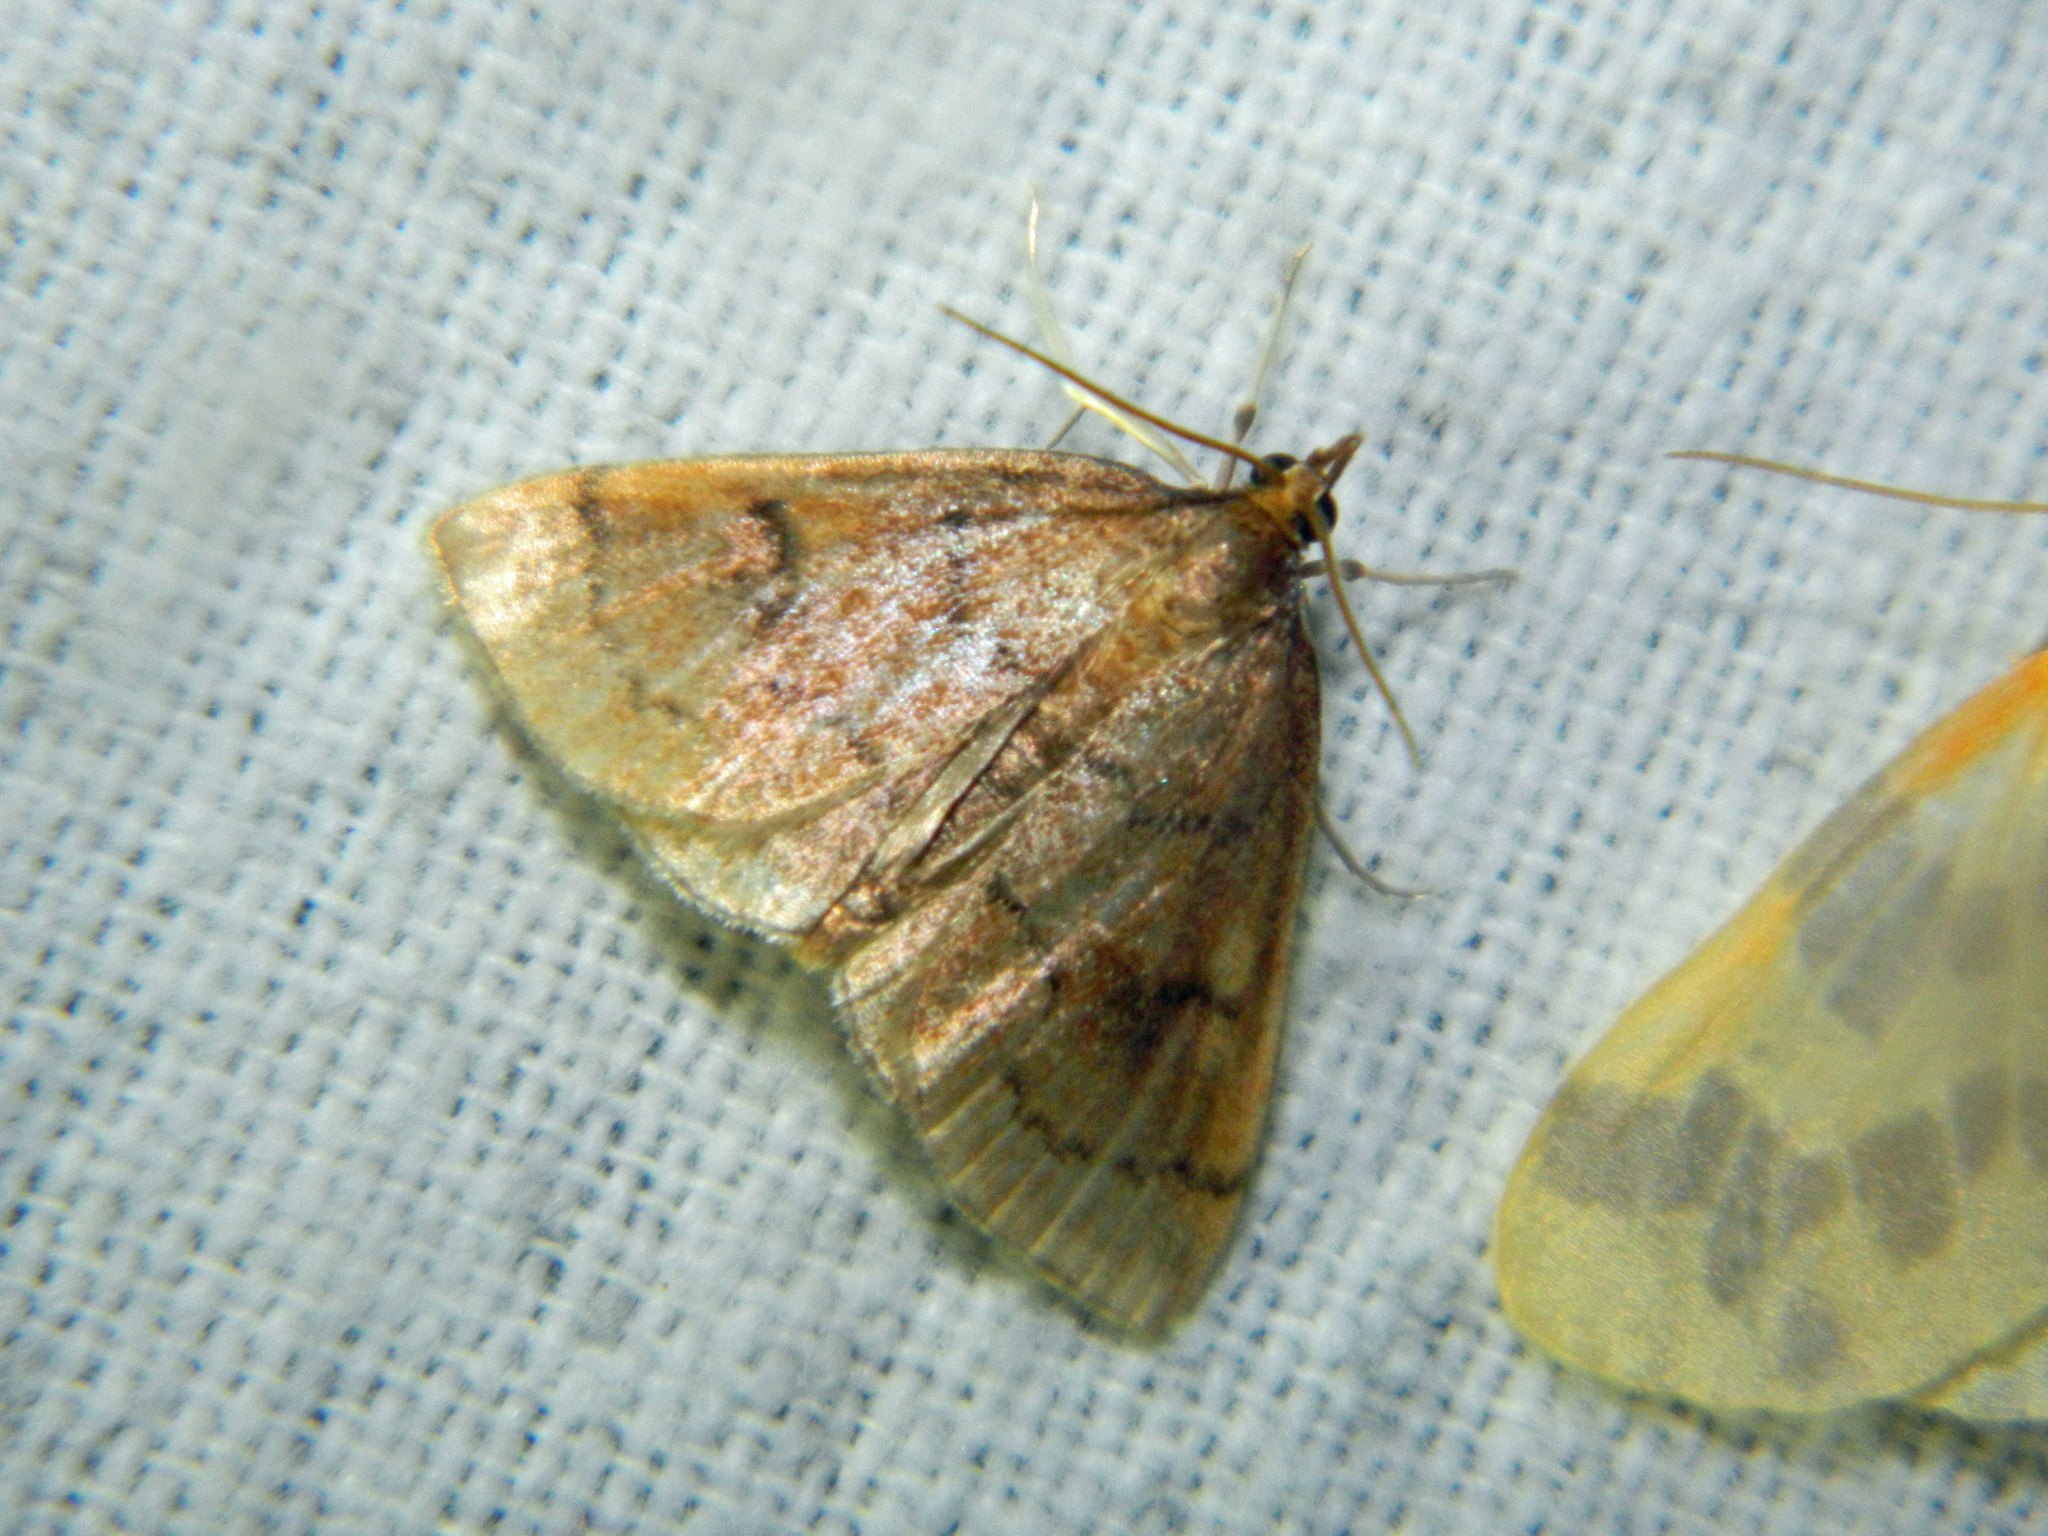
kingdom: Animalia
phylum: Arthropoda
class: Insecta
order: Lepidoptera
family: Crambidae
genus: Fumibotys
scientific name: Fumibotys fumalis
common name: Mint root borer moth
